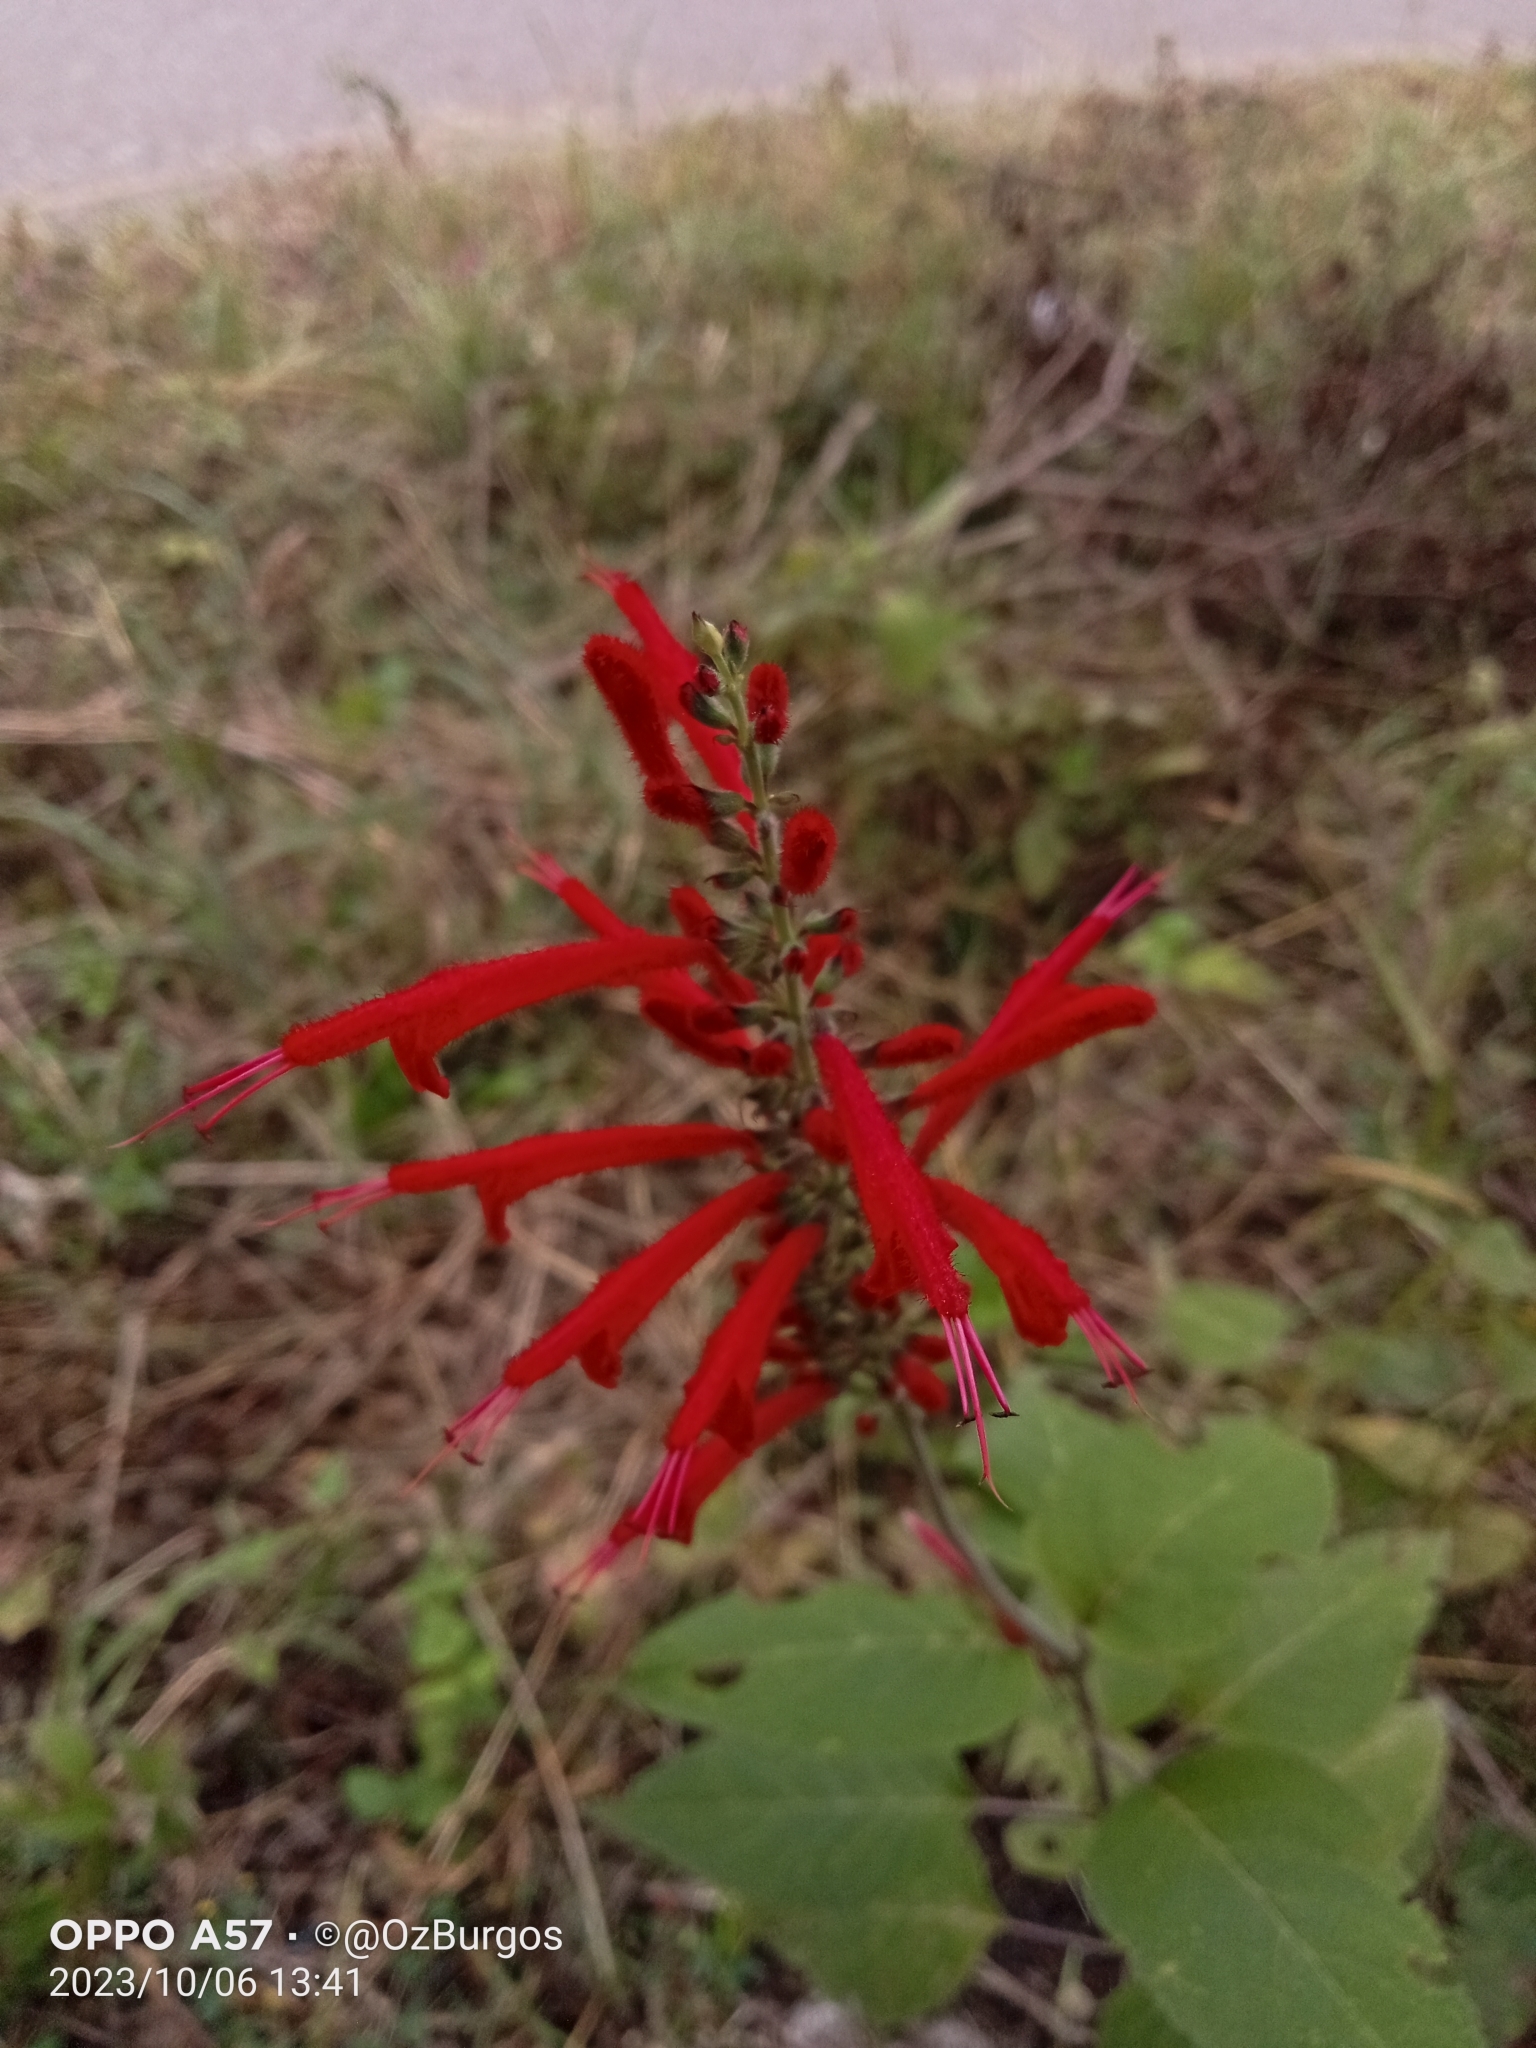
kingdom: Plantae
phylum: Tracheophyta
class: Magnoliopsida
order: Lamiales
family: Lamiaceae
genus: Salvia
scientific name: Salvia cinnabarina
